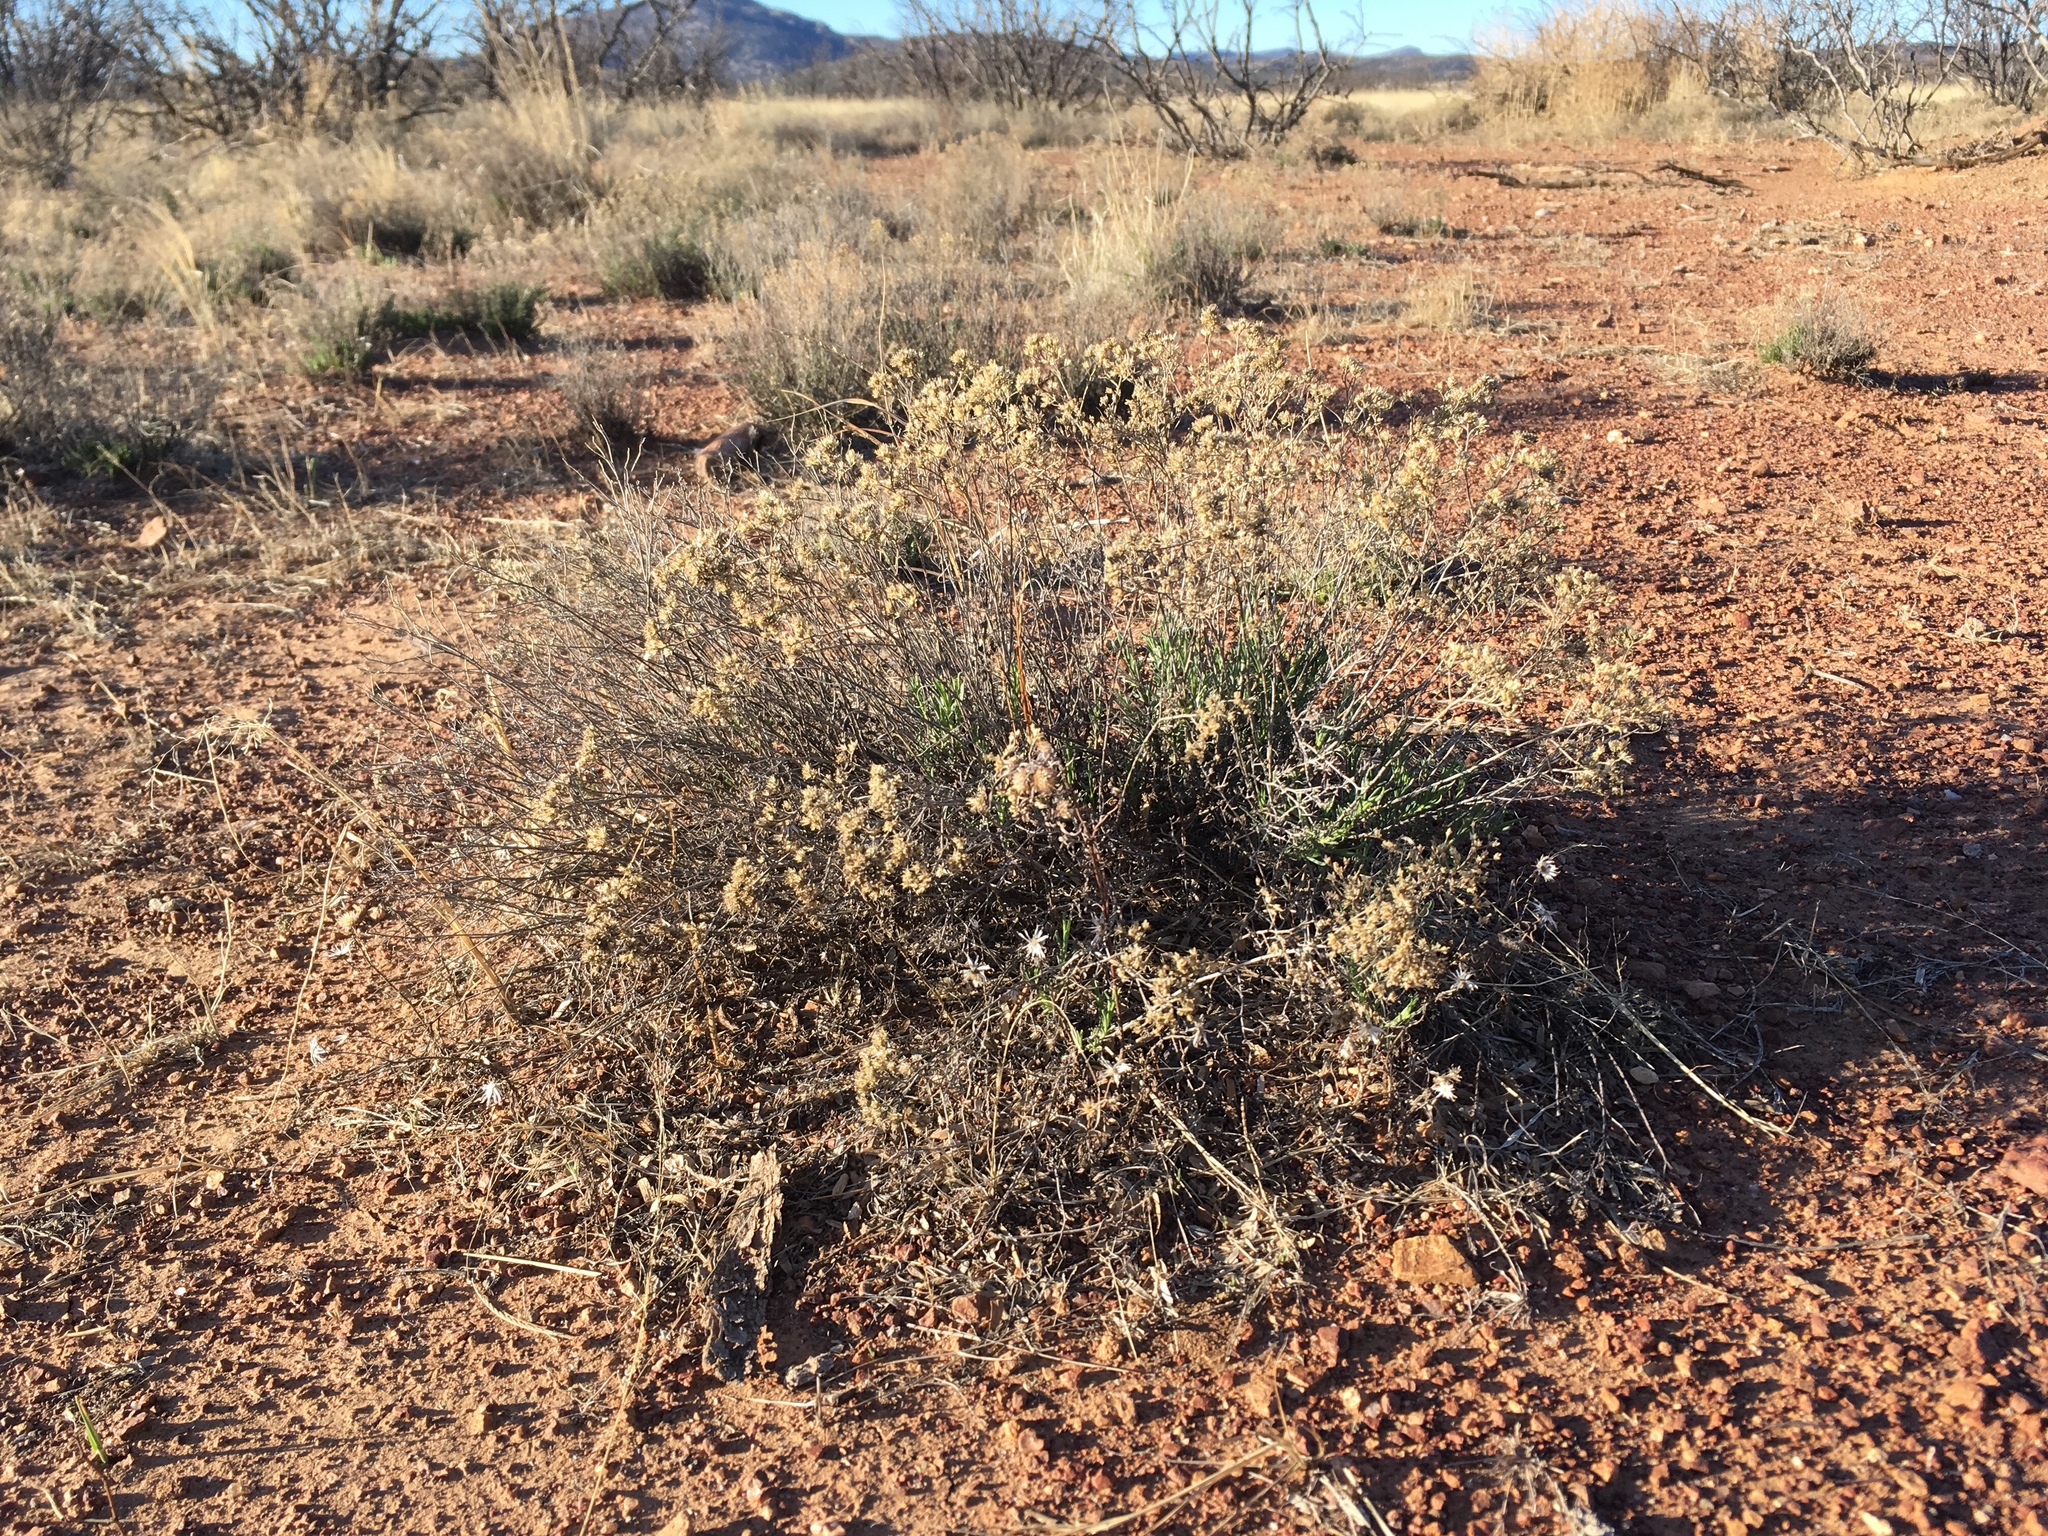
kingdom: Plantae
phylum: Tracheophyta
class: Magnoliopsida
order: Asterales
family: Asteraceae
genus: Gutierrezia
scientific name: Gutierrezia sarothrae
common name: Broom snakeweed
